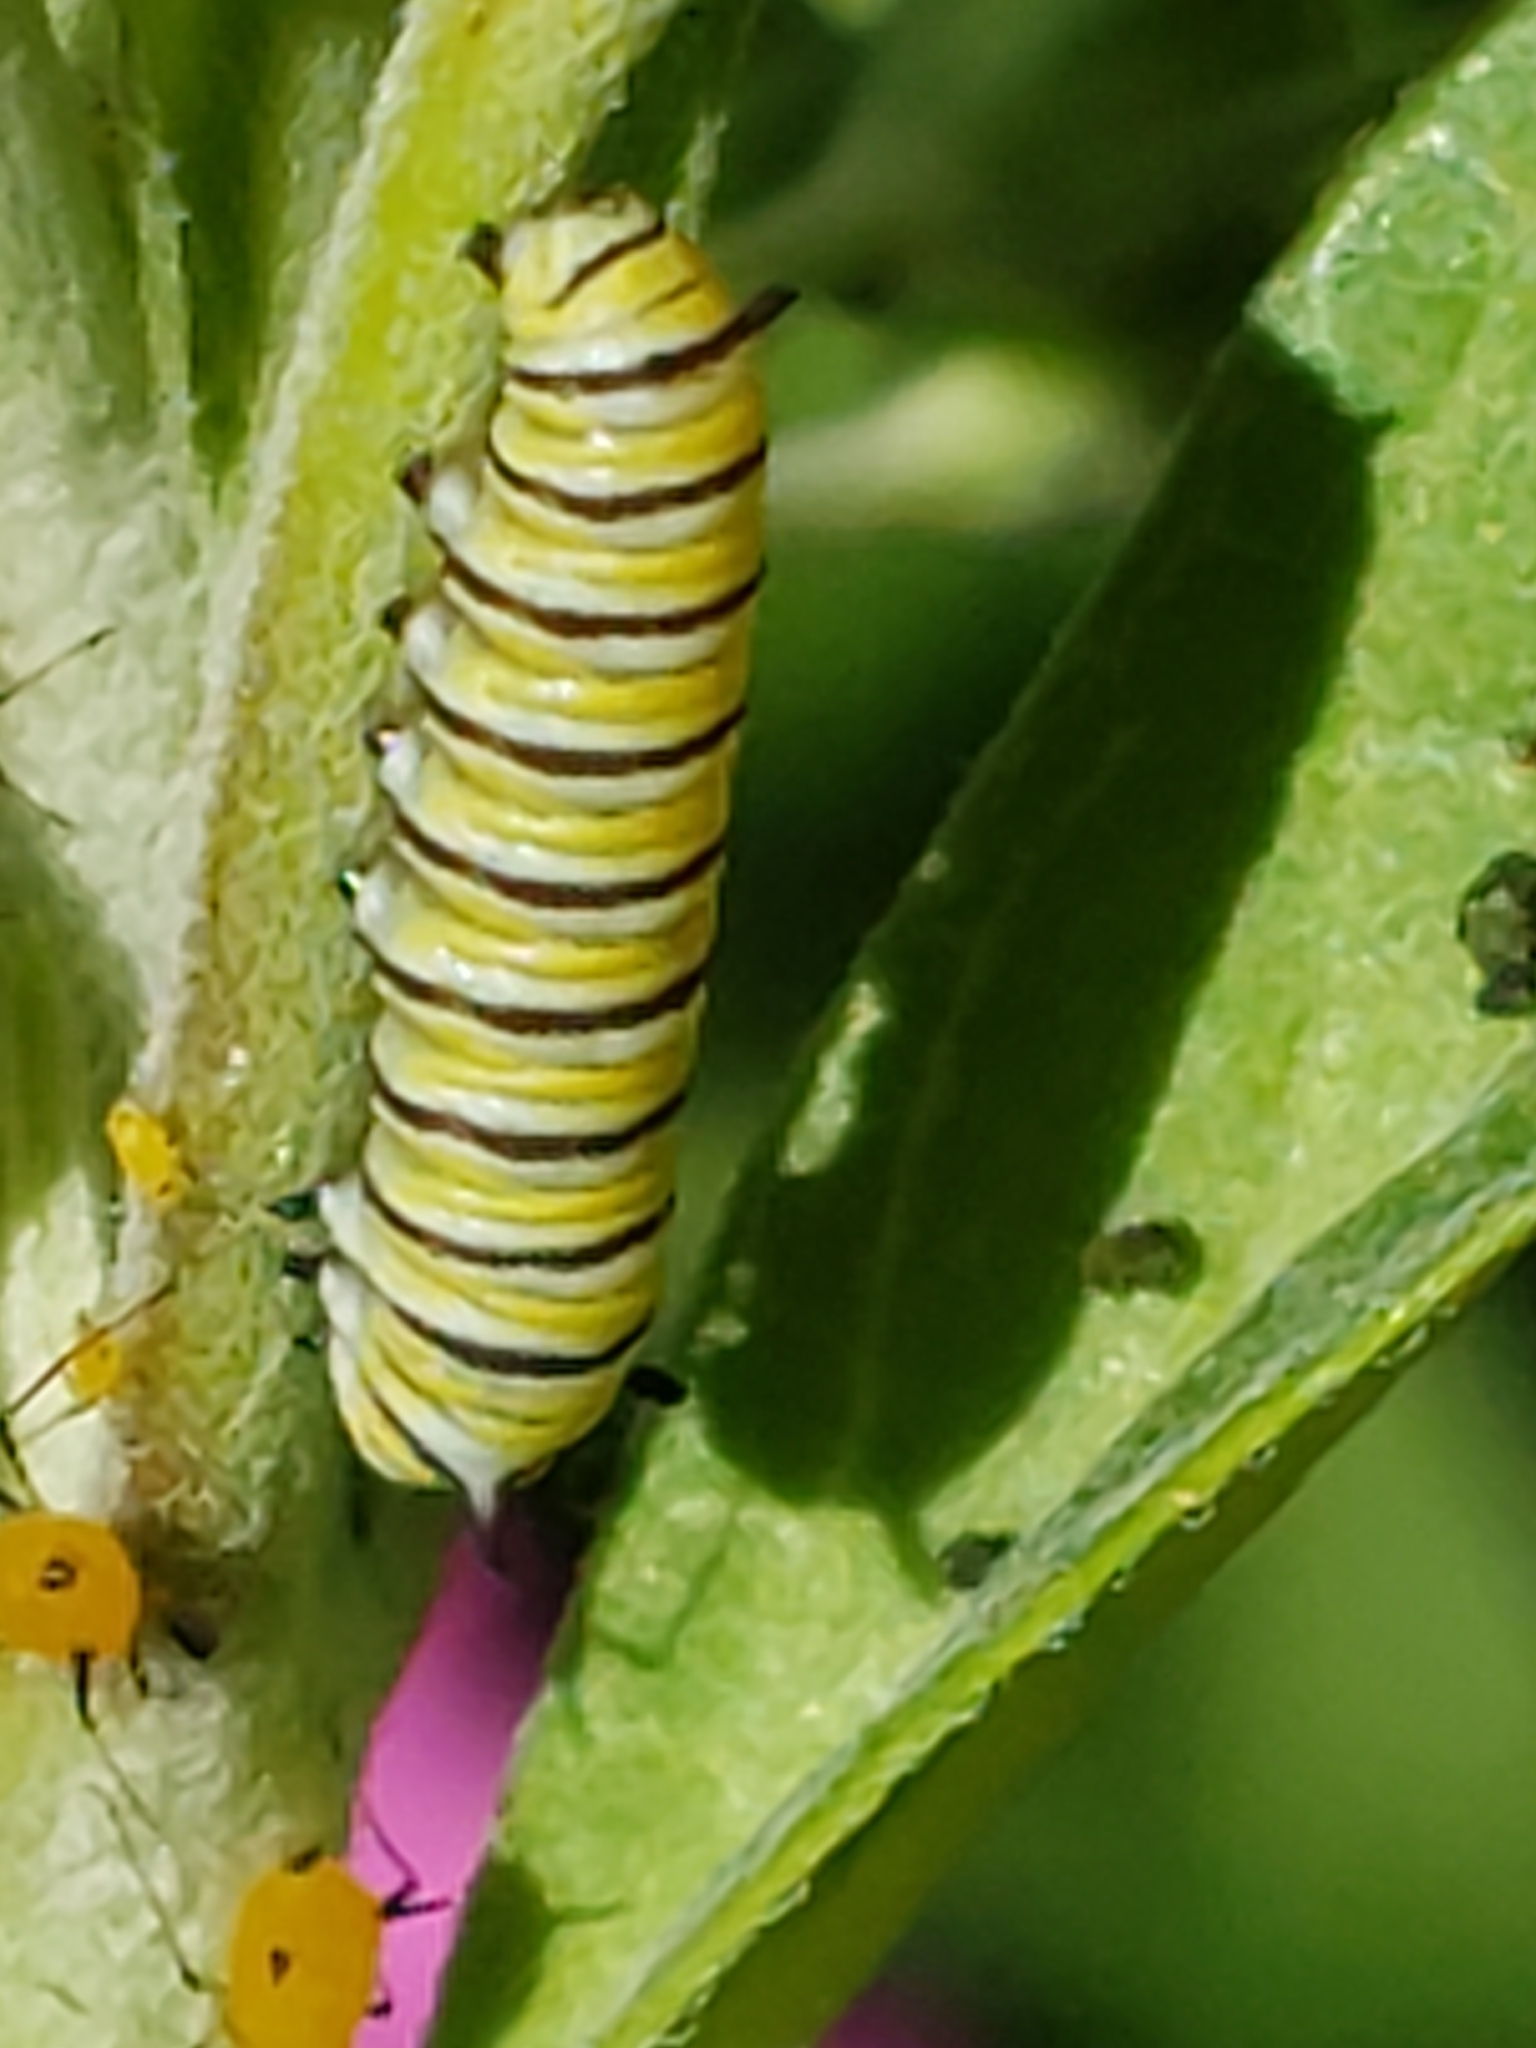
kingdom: Animalia
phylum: Arthropoda
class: Insecta
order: Lepidoptera
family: Nymphalidae
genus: Danaus
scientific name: Danaus plexippus
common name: Monarch
